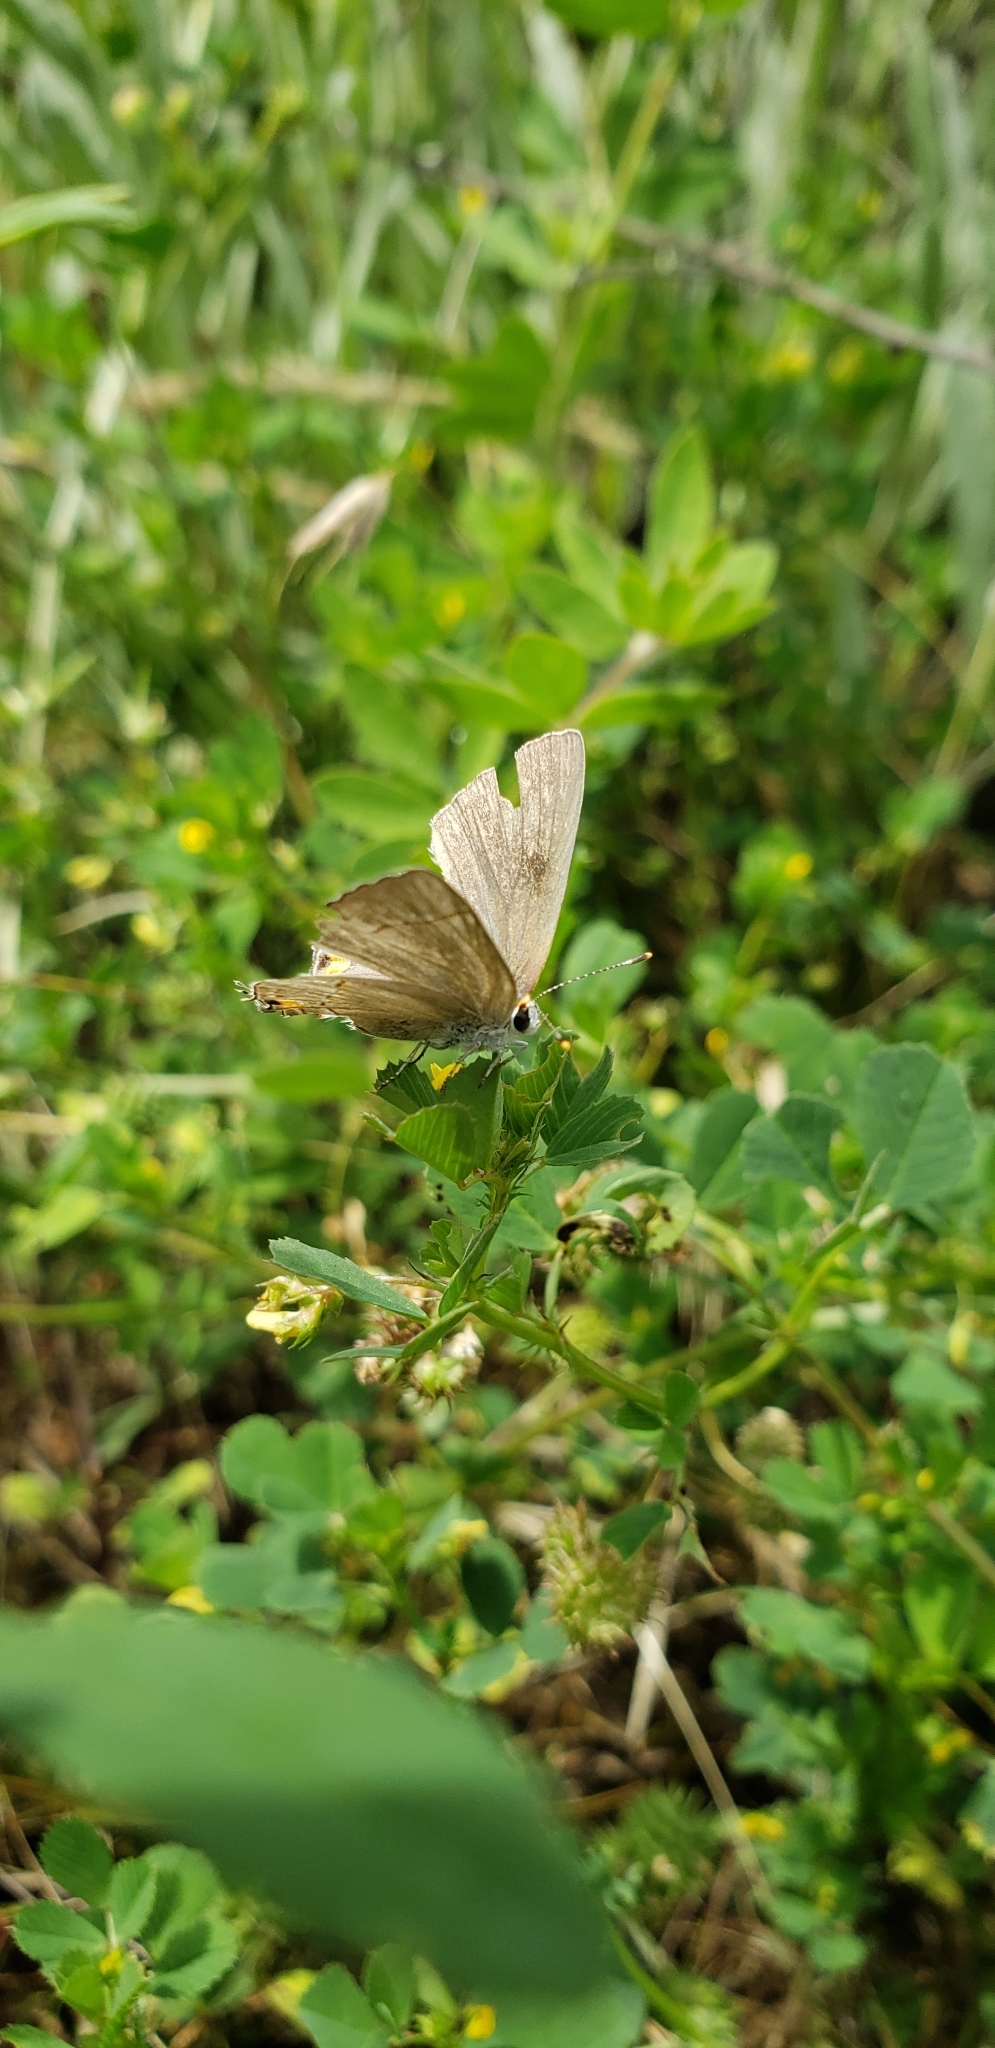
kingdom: Animalia
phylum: Arthropoda
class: Insecta
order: Lepidoptera
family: Lycaenidae
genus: Strymon
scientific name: Strymon melinus
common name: Gray hairstreak
